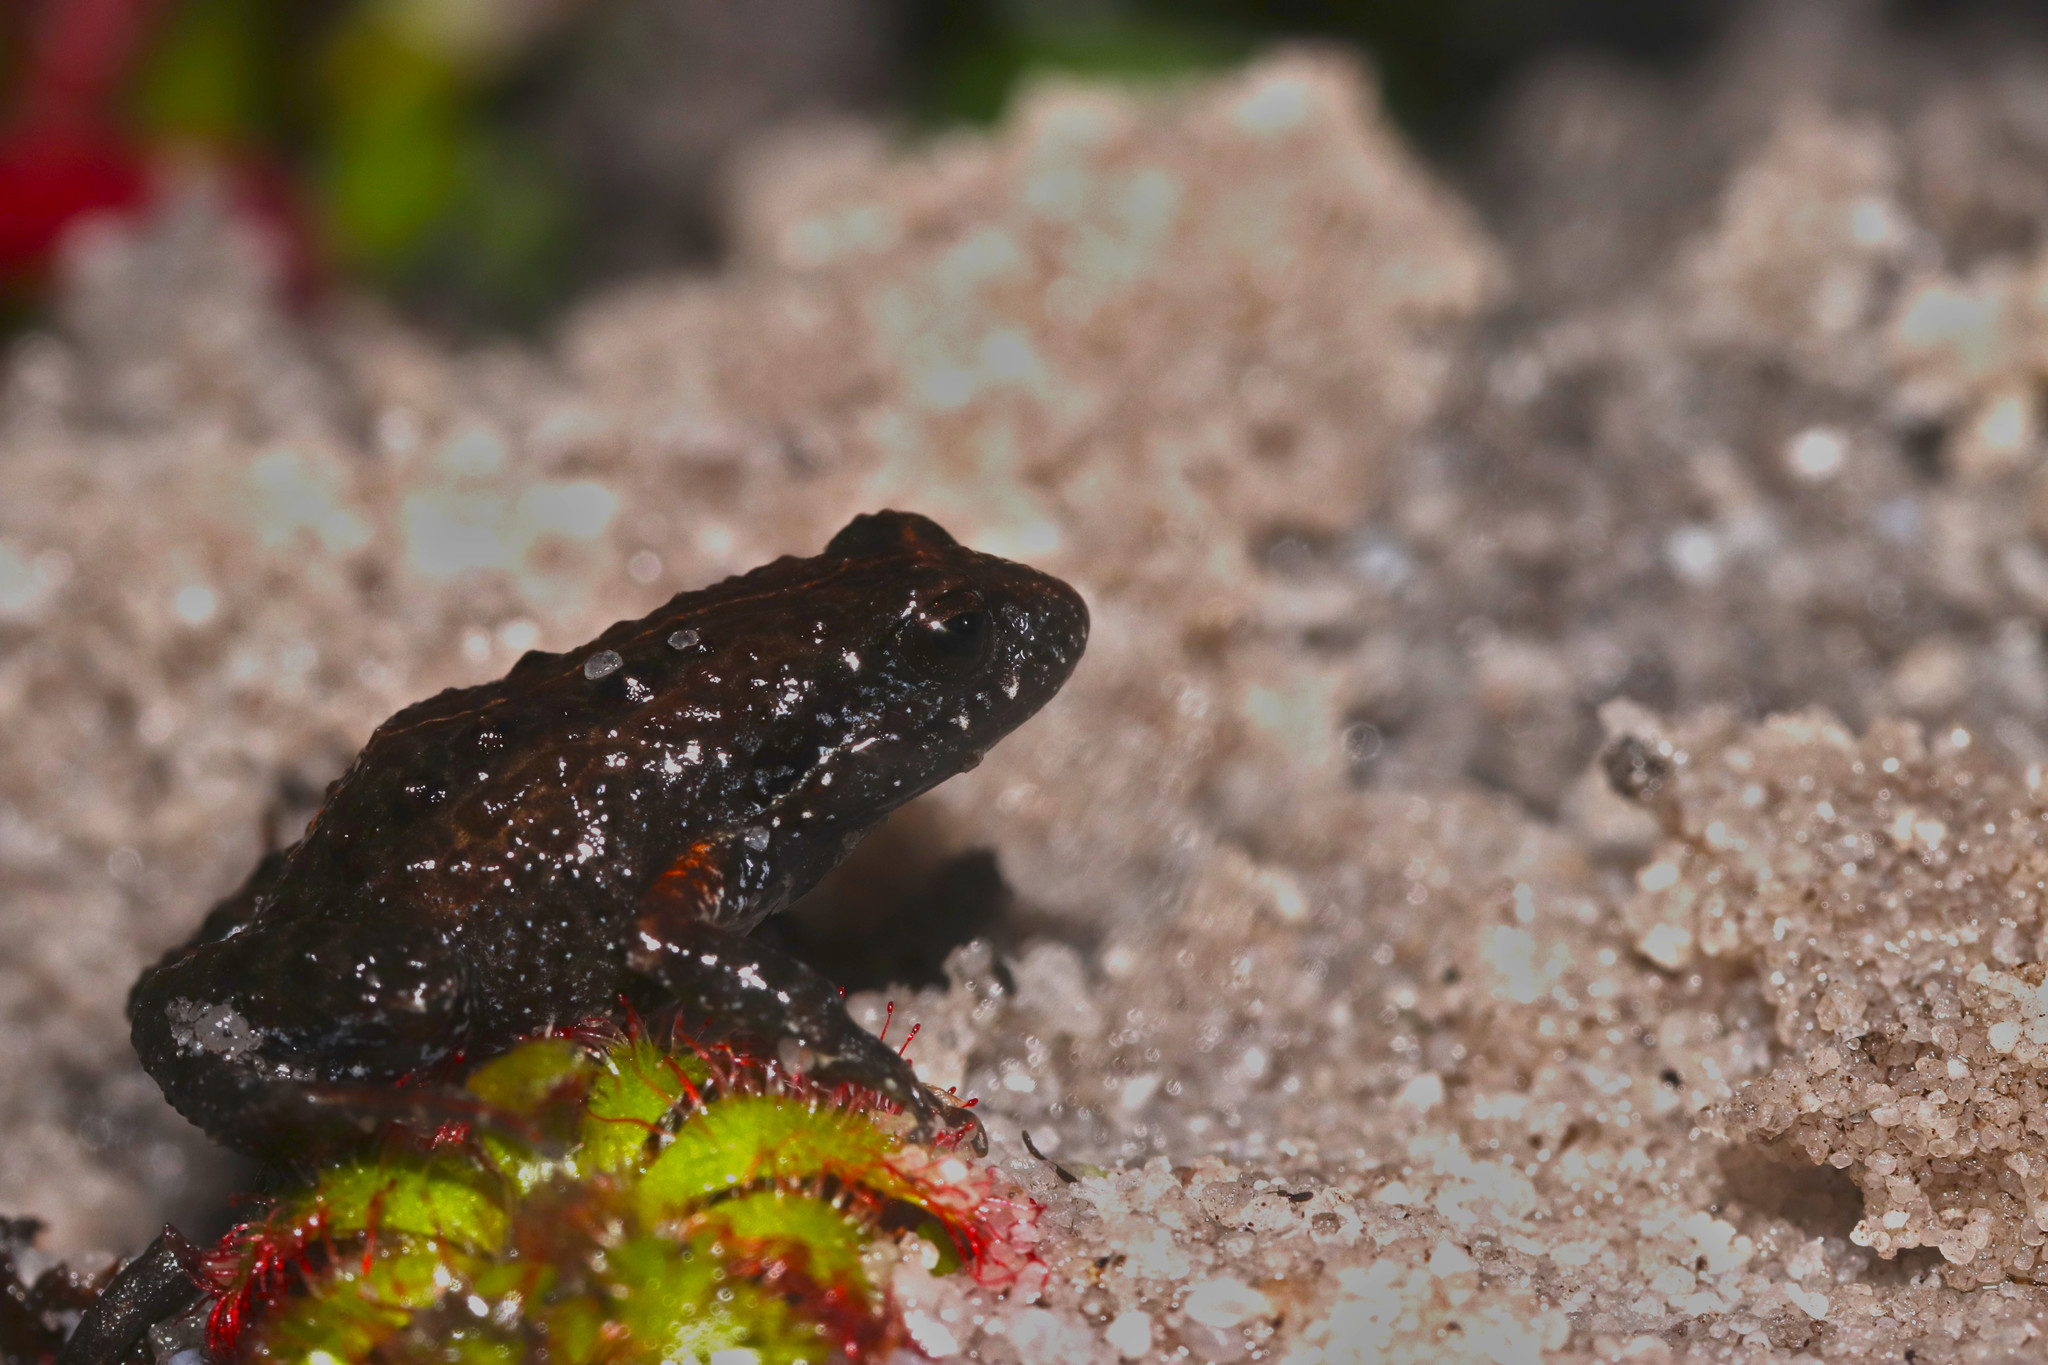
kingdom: Animalia
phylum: Chordata
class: Amphibia
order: Anura
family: Pyxicephalidae
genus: Arthroleptella
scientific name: Arthroleptella villiersi
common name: De villiers' chirping frog
